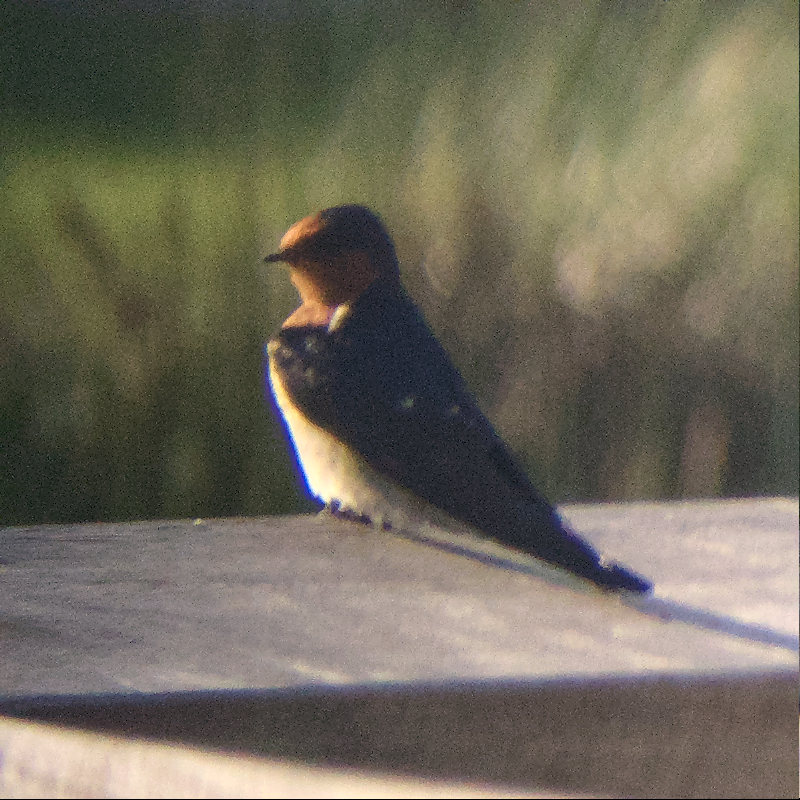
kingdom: Animalia
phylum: Chordata
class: Aves
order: Passeriformes
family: Hirundinidae
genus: Hirundo
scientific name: Hirundo neoxena
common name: Welcome swallow
